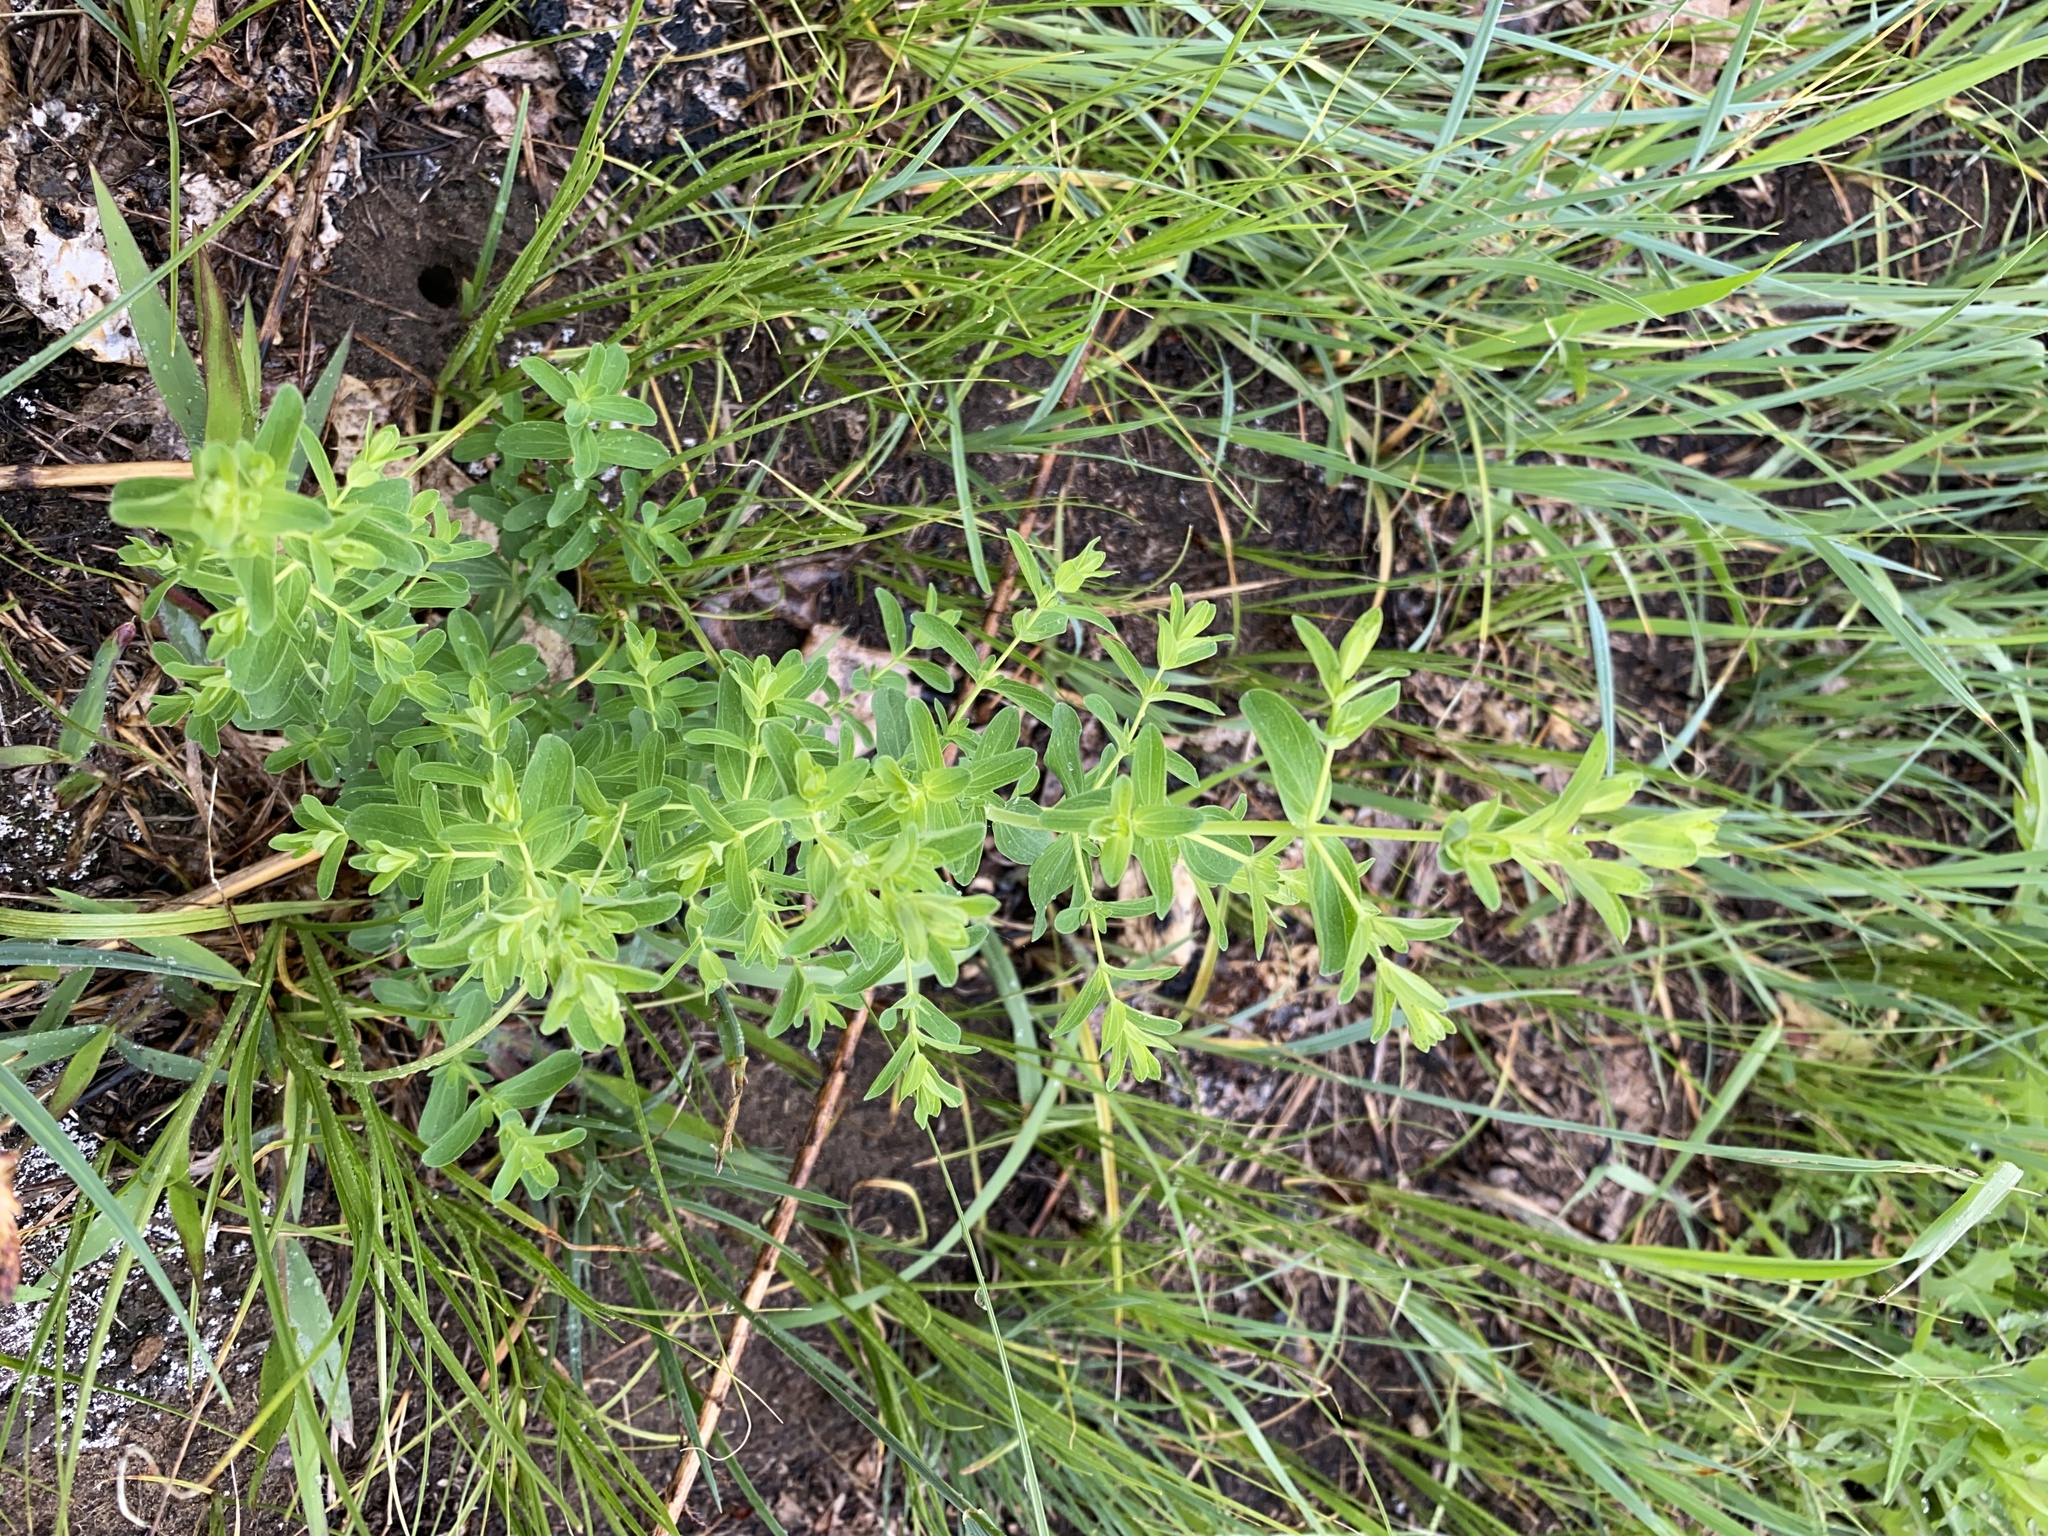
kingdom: Plantae
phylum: Tracheophyta
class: Magnoliopsida
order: Malpighiales
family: Hypericaceae
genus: Hypericum
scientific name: Hypericum perforatum
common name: Common st. johnswort
